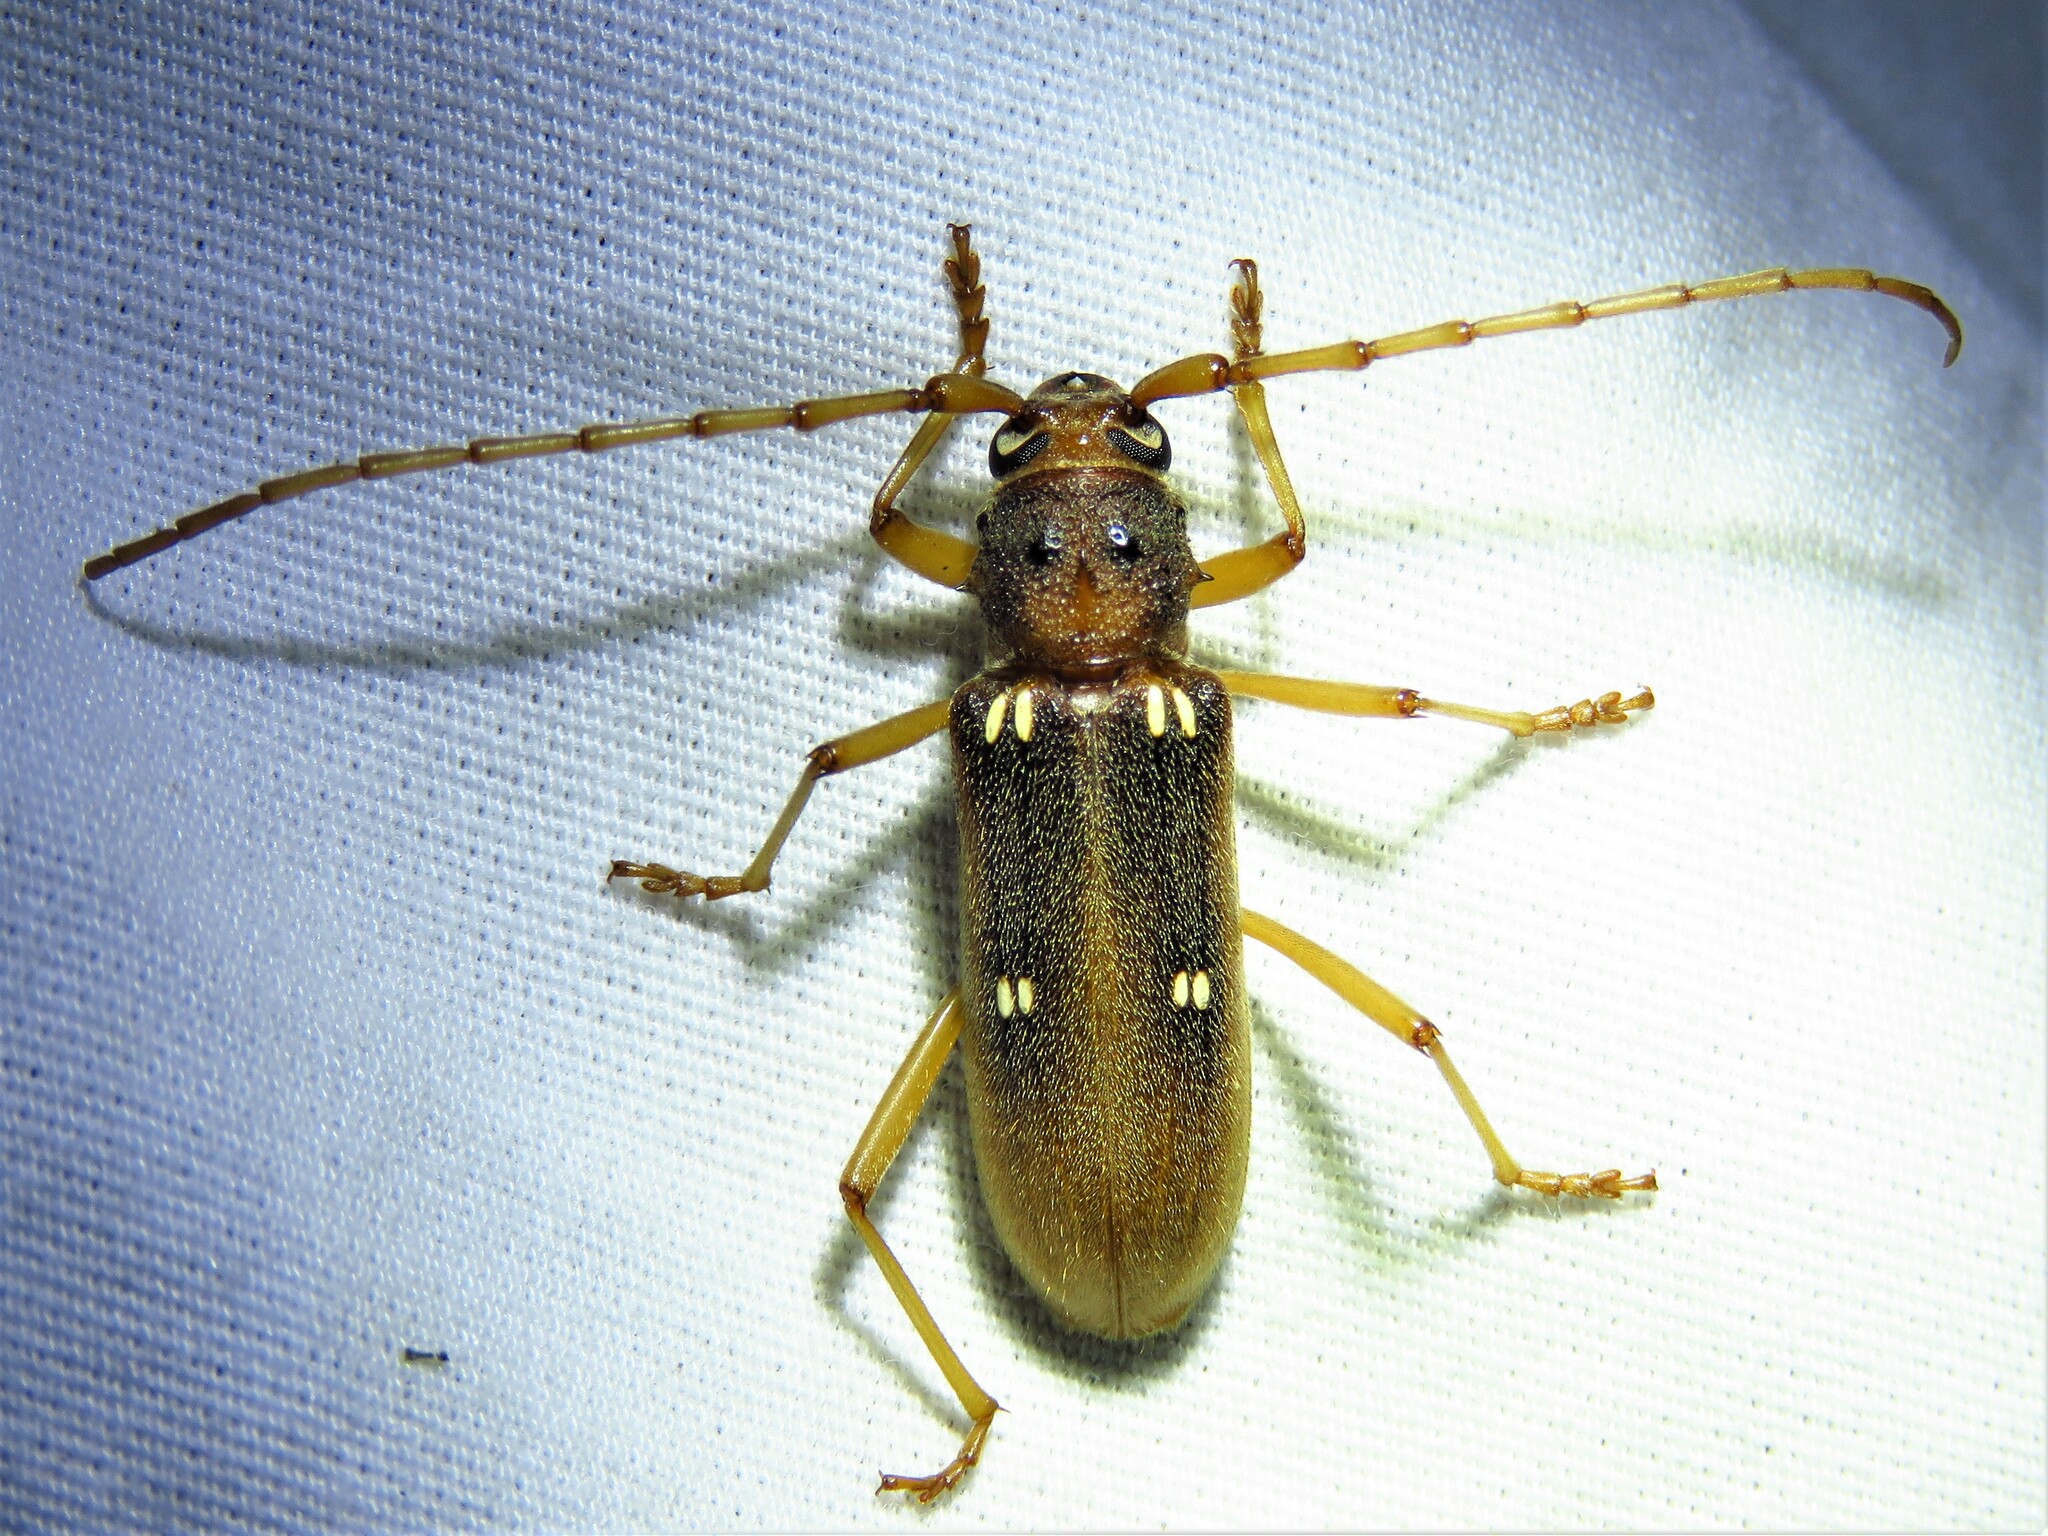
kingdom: Animalia
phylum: Arthropoda
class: Insecta
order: Coleoptera
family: Cerambycidae
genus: Eburia
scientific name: Eburia haldemani
